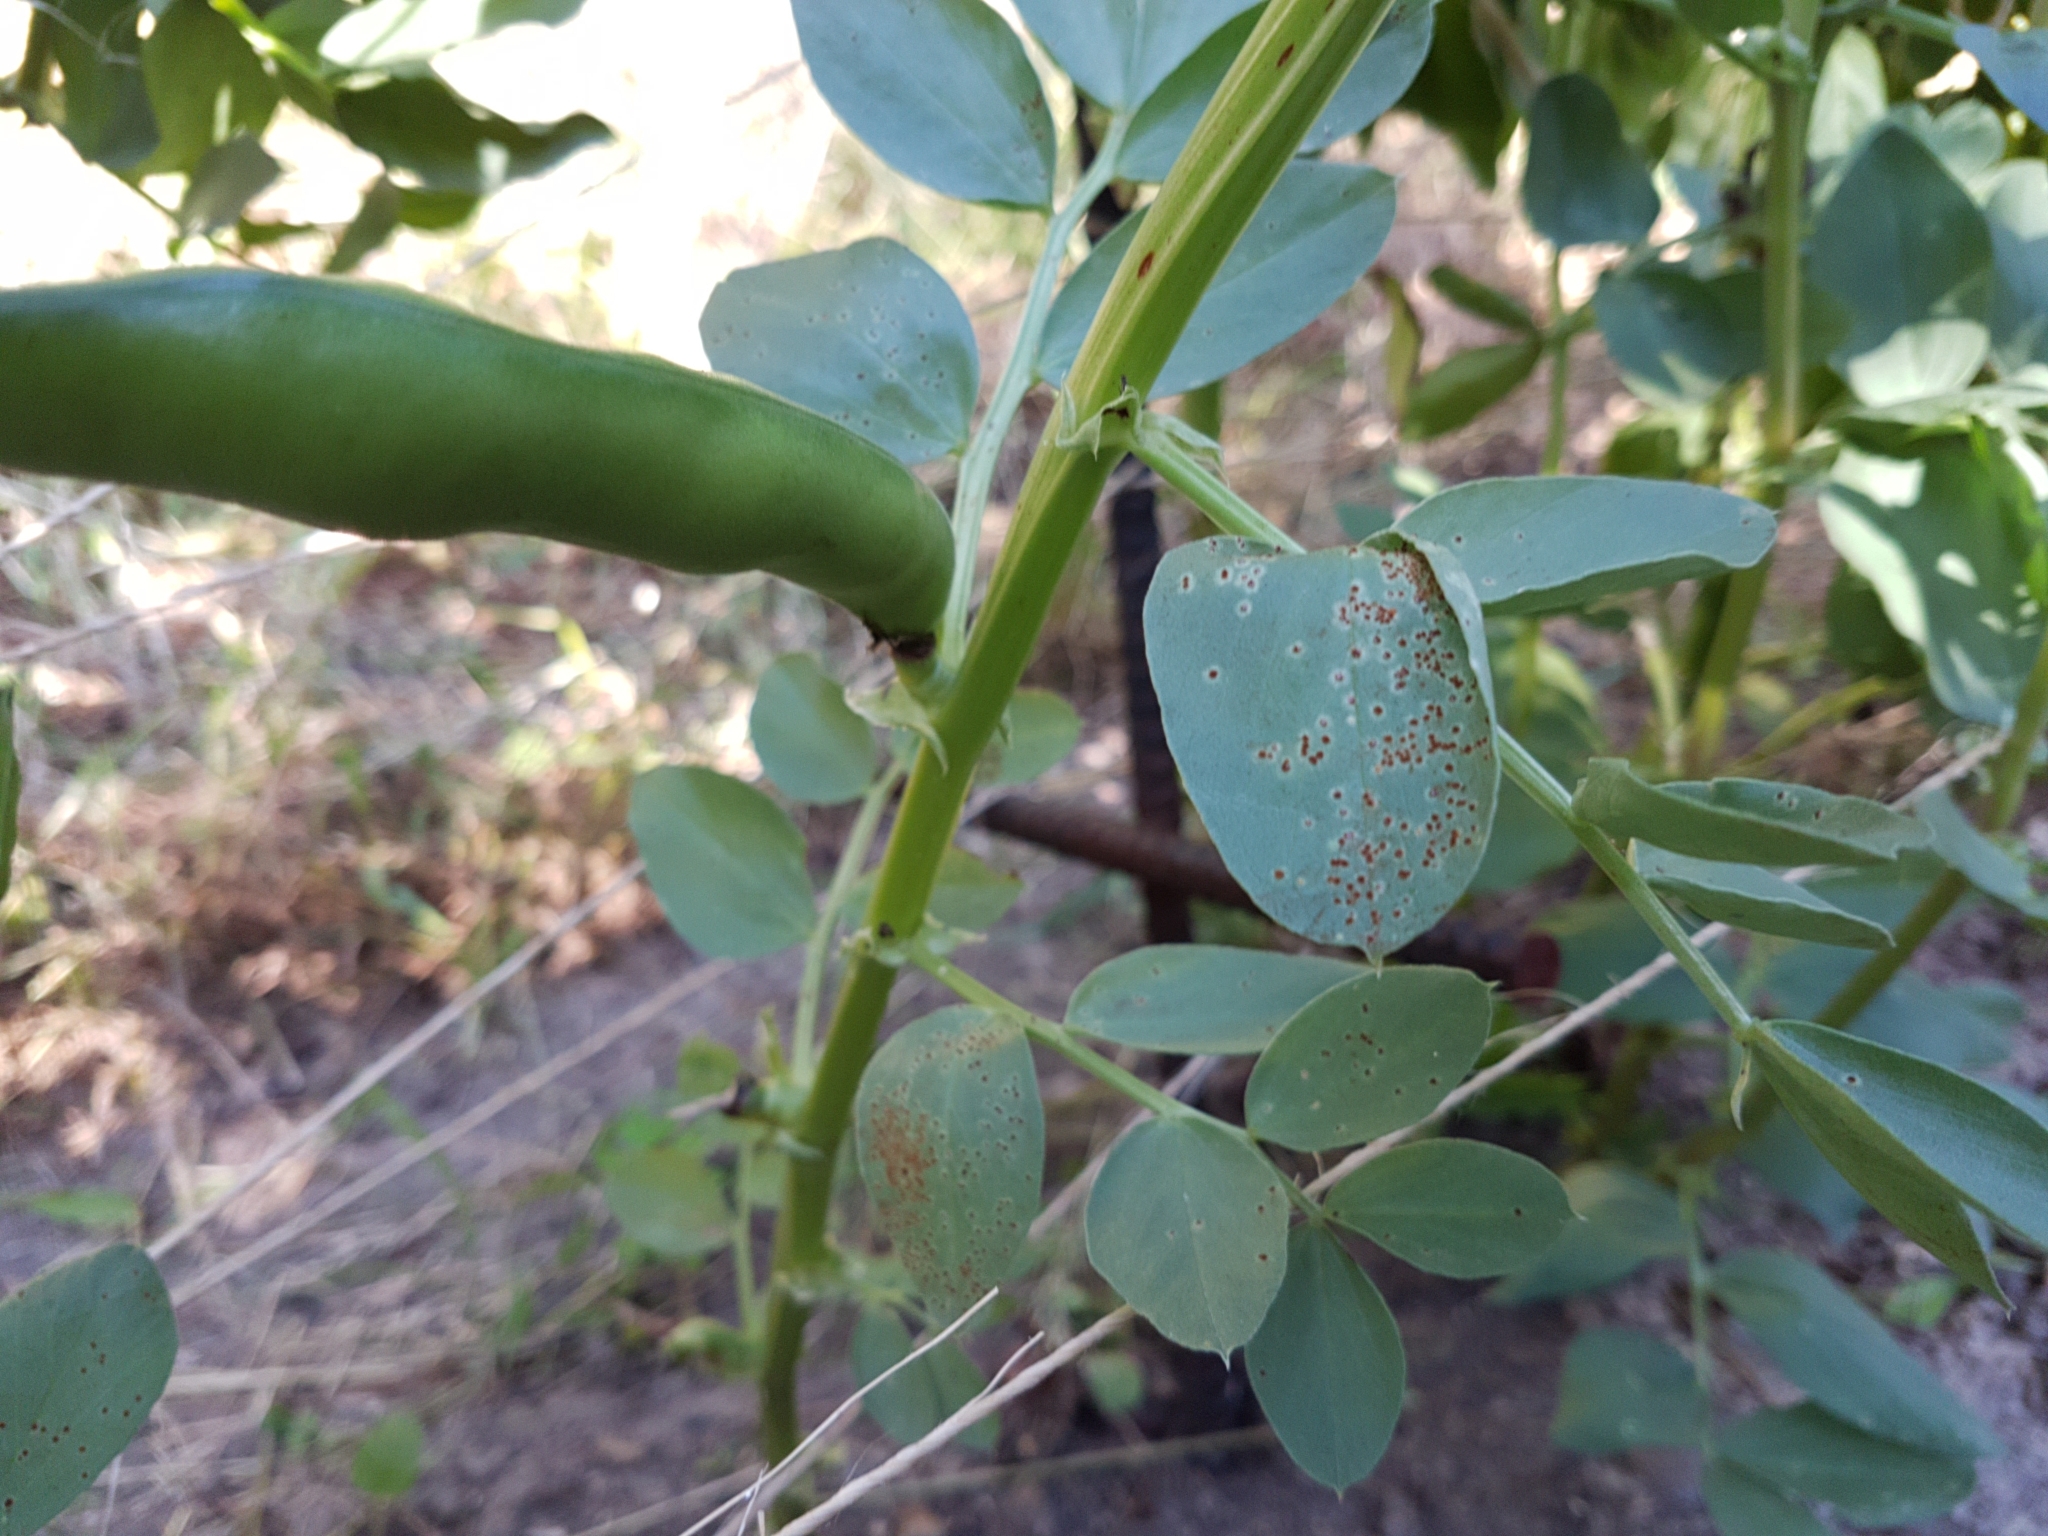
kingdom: Fungi
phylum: Basidiomycota
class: Pucciniomycetes
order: Pucciniales
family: Pucciniaceae
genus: Uromyces
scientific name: Uromyces viciae-fabae
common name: Broad bean rust
